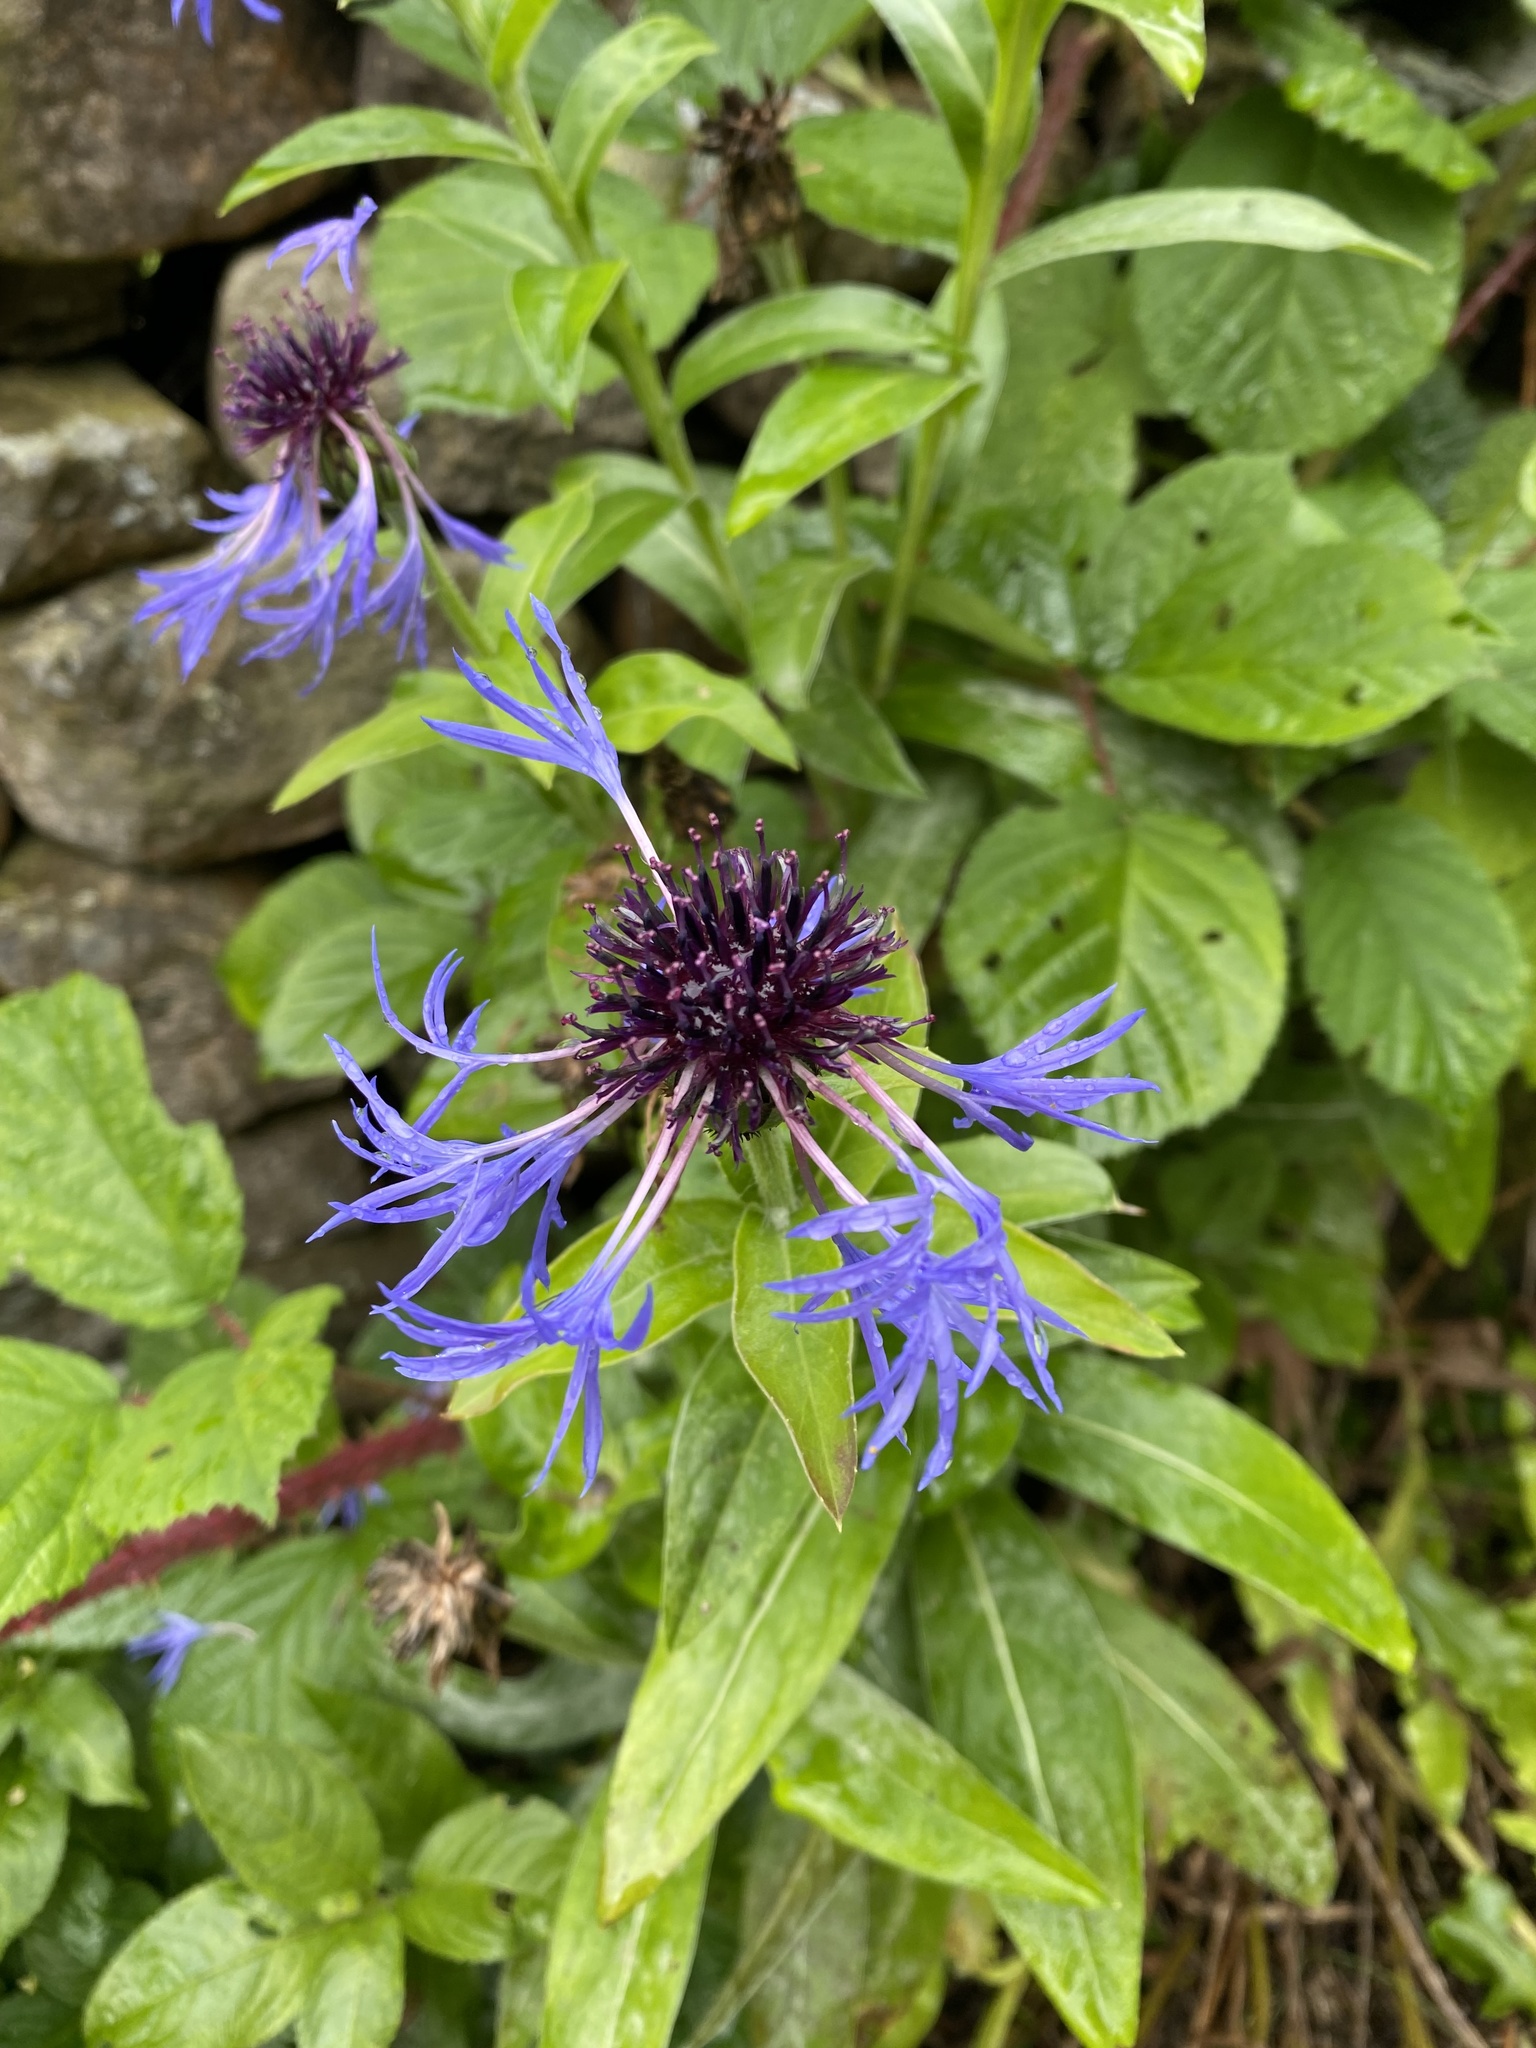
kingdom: Plantae
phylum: Tracheophyta
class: Magnoliopsida
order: Asterales
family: Asteraceae
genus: Centaurea
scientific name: Centaurea montana
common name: Perennial cornflower
